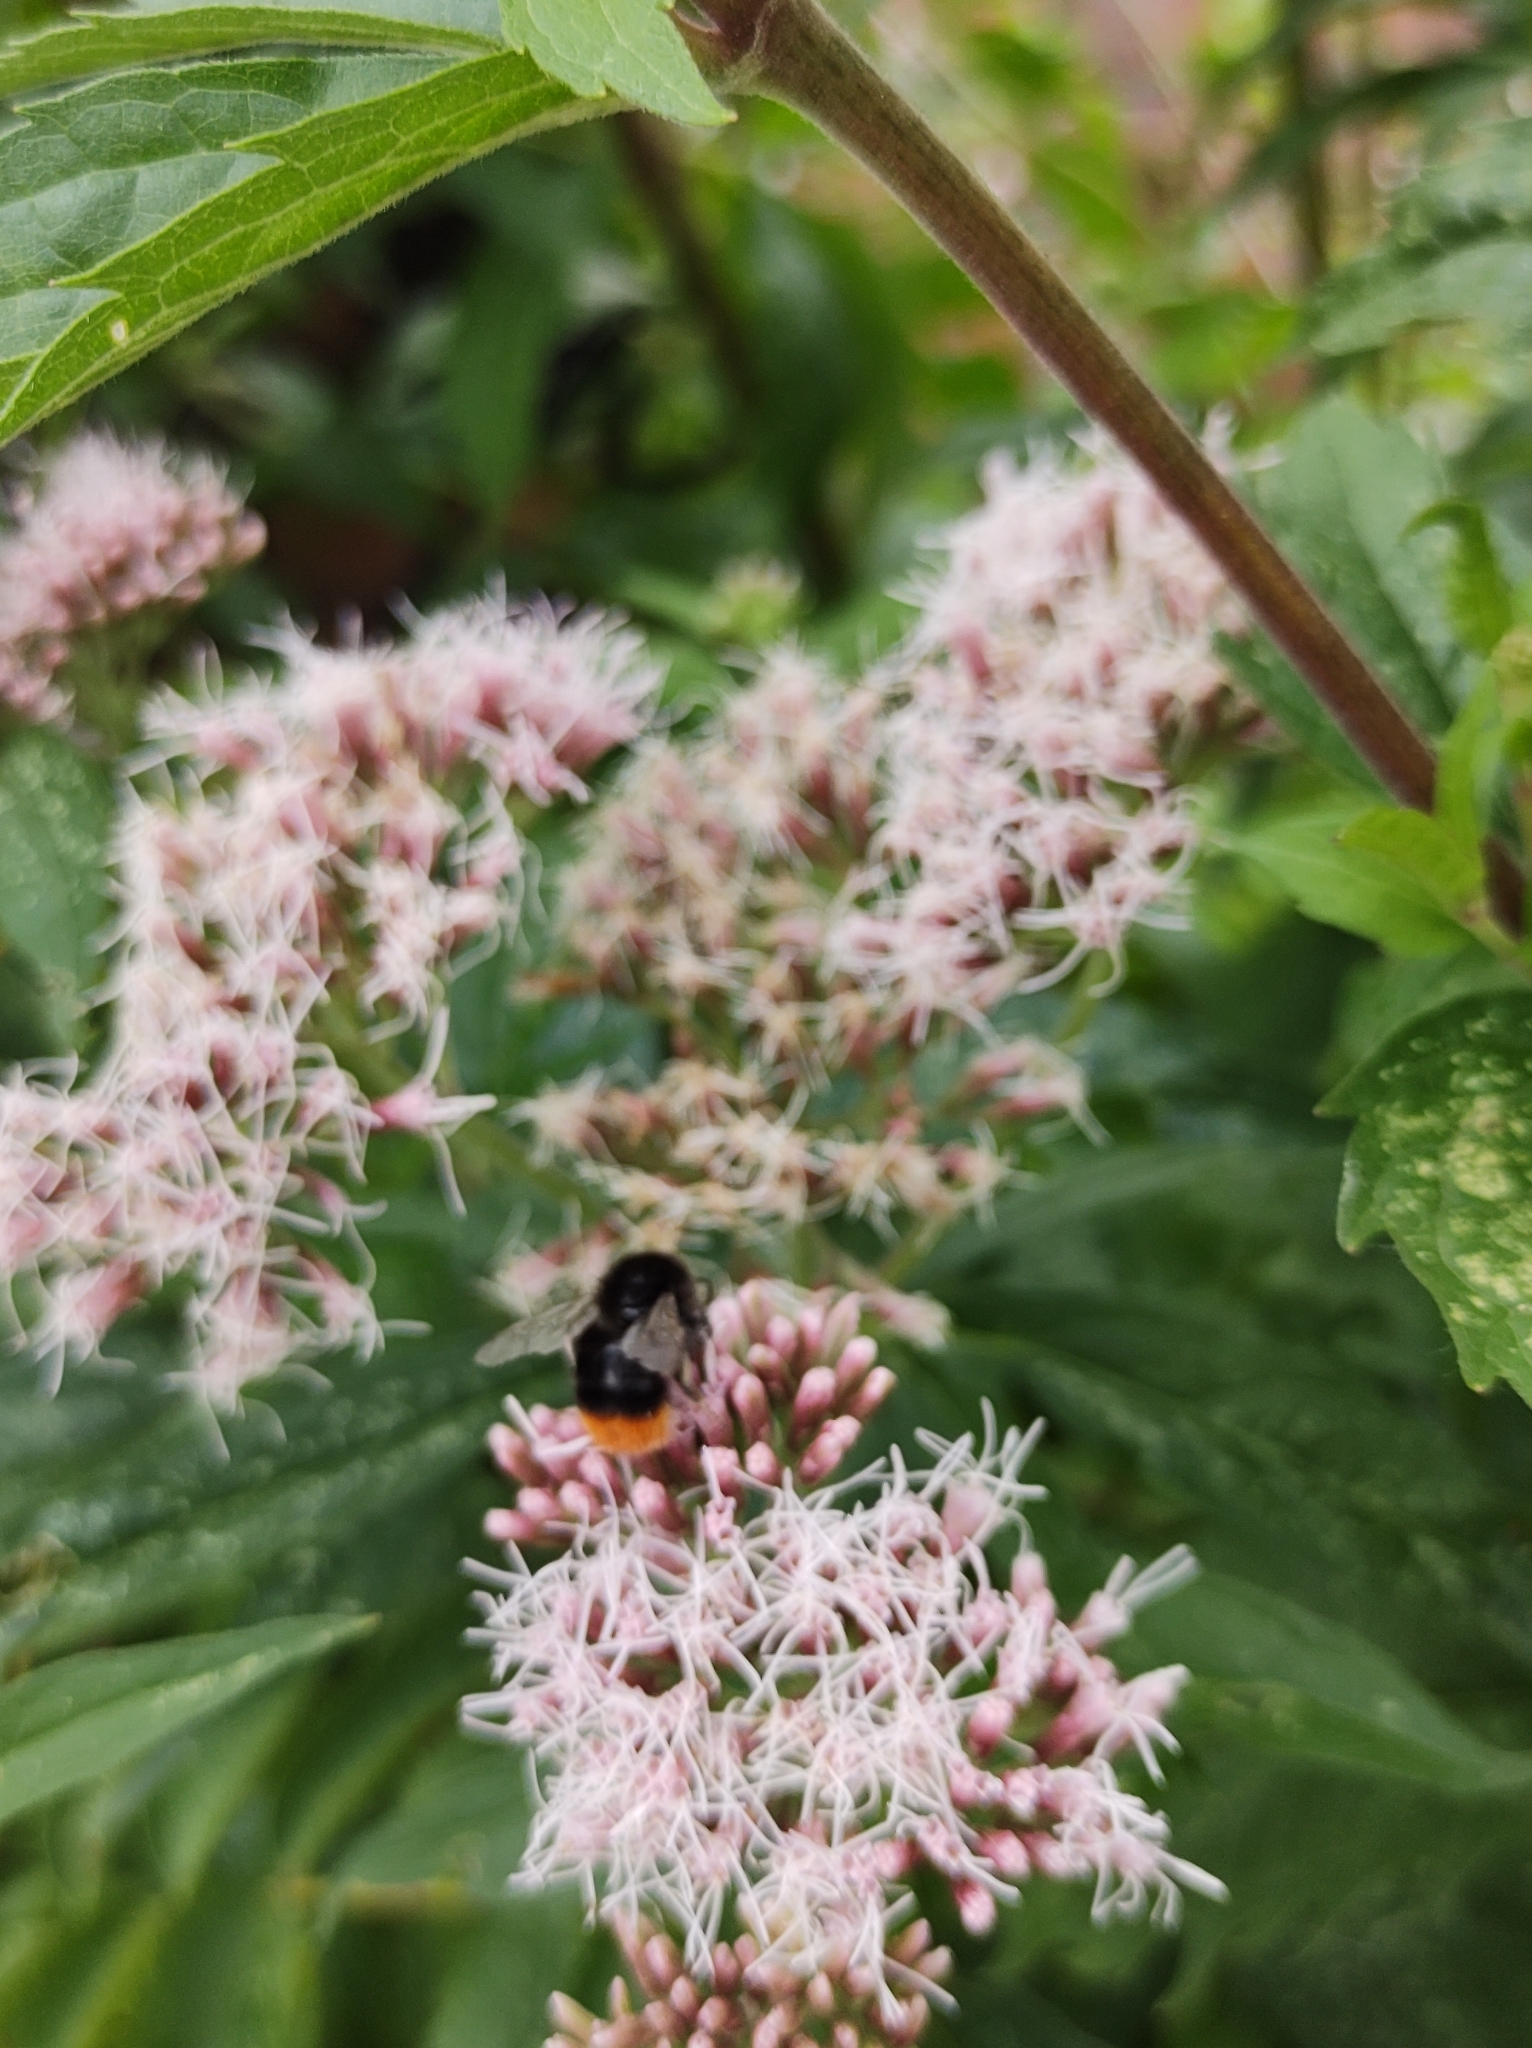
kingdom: Animalia
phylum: Arthropoda
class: Insecta
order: Hymenoptera
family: Apidae
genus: Bombus
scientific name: Bombus lapidarius
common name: Large red-tailed humble-bee
